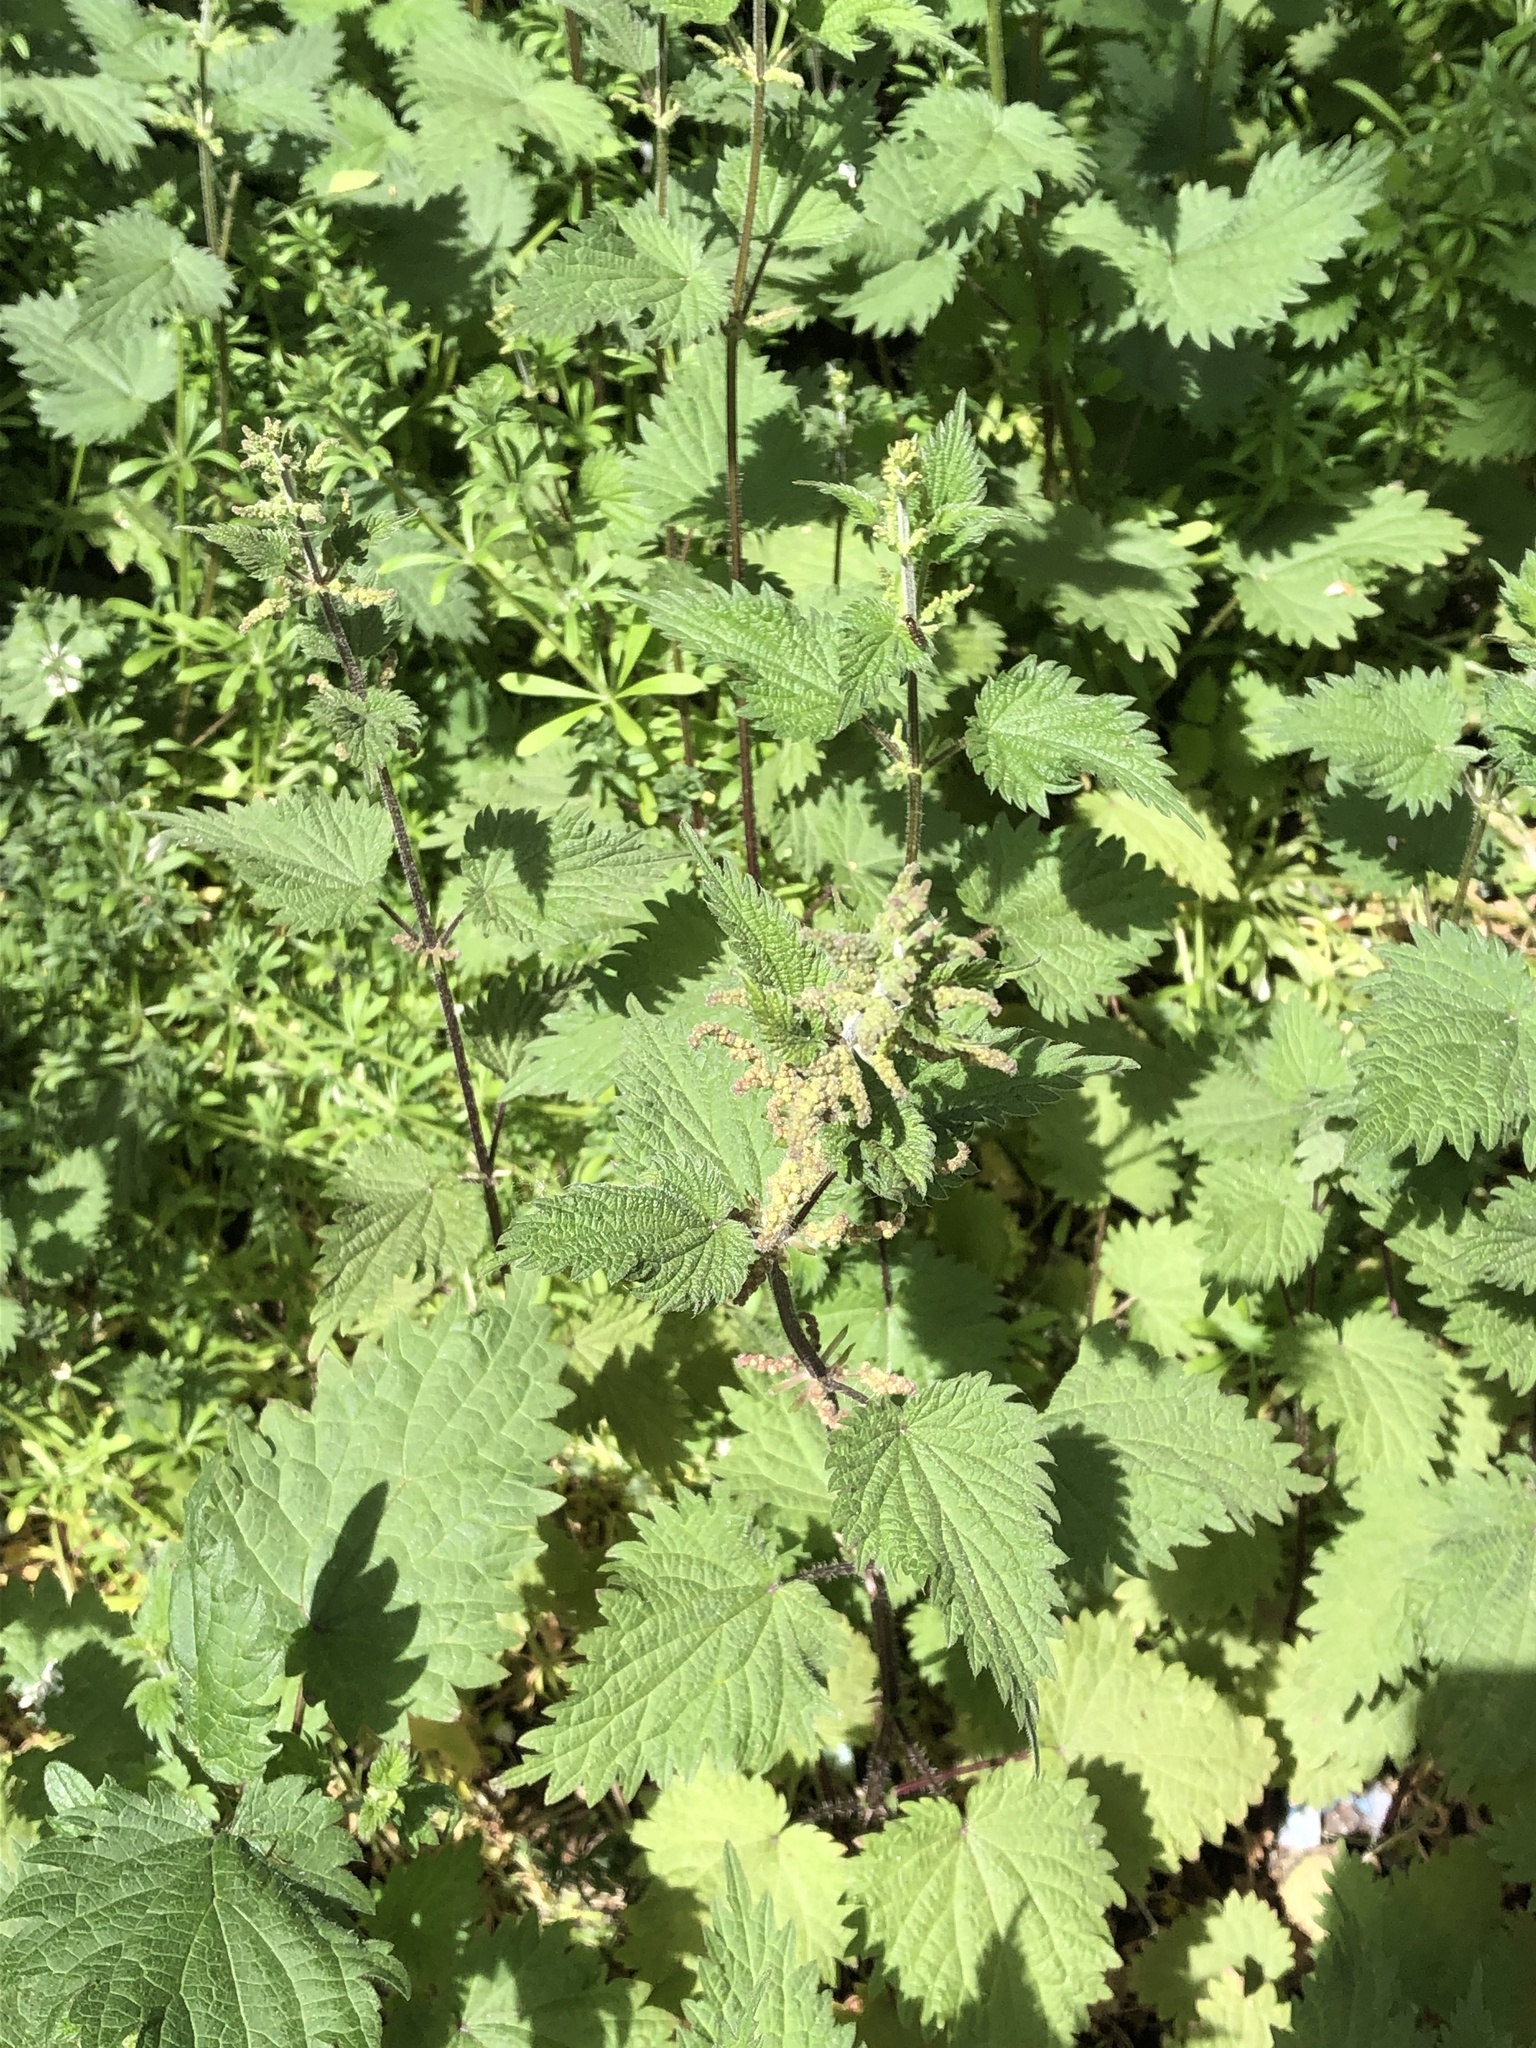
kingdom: Plantae
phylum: Tracheophyta
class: Magnoliopsida
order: Rosales
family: Urticaceae
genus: Urtica
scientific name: Urtica dioica
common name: Common nettle
